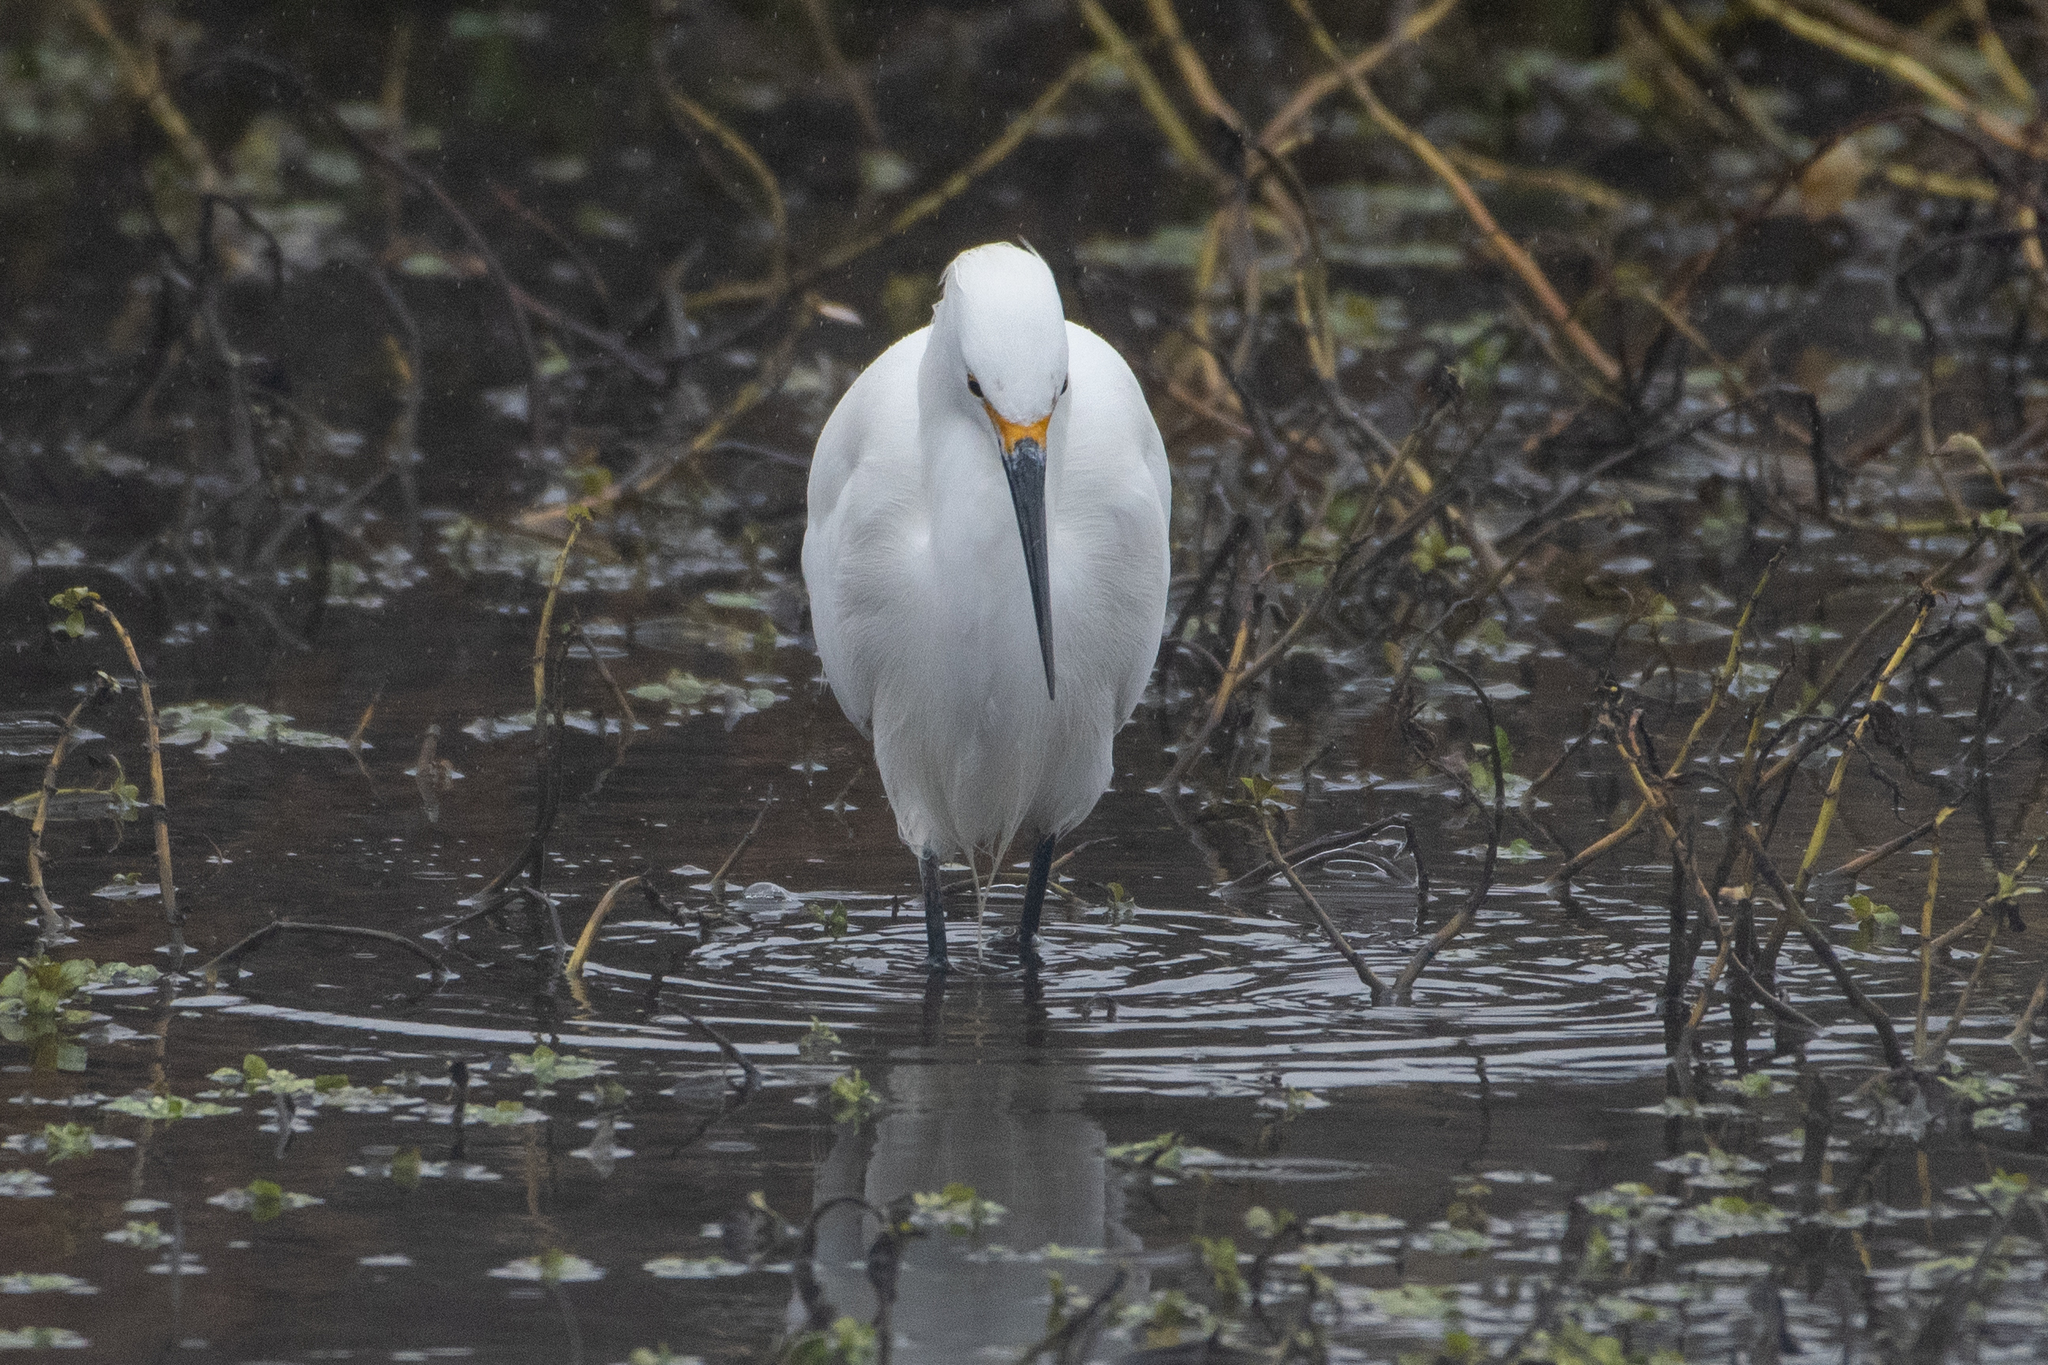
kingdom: Animalia
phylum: Chordata
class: Aves
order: Pelecaniformes
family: Ardeidae
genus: Egretta
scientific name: Egretta thula
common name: Snowy egret
